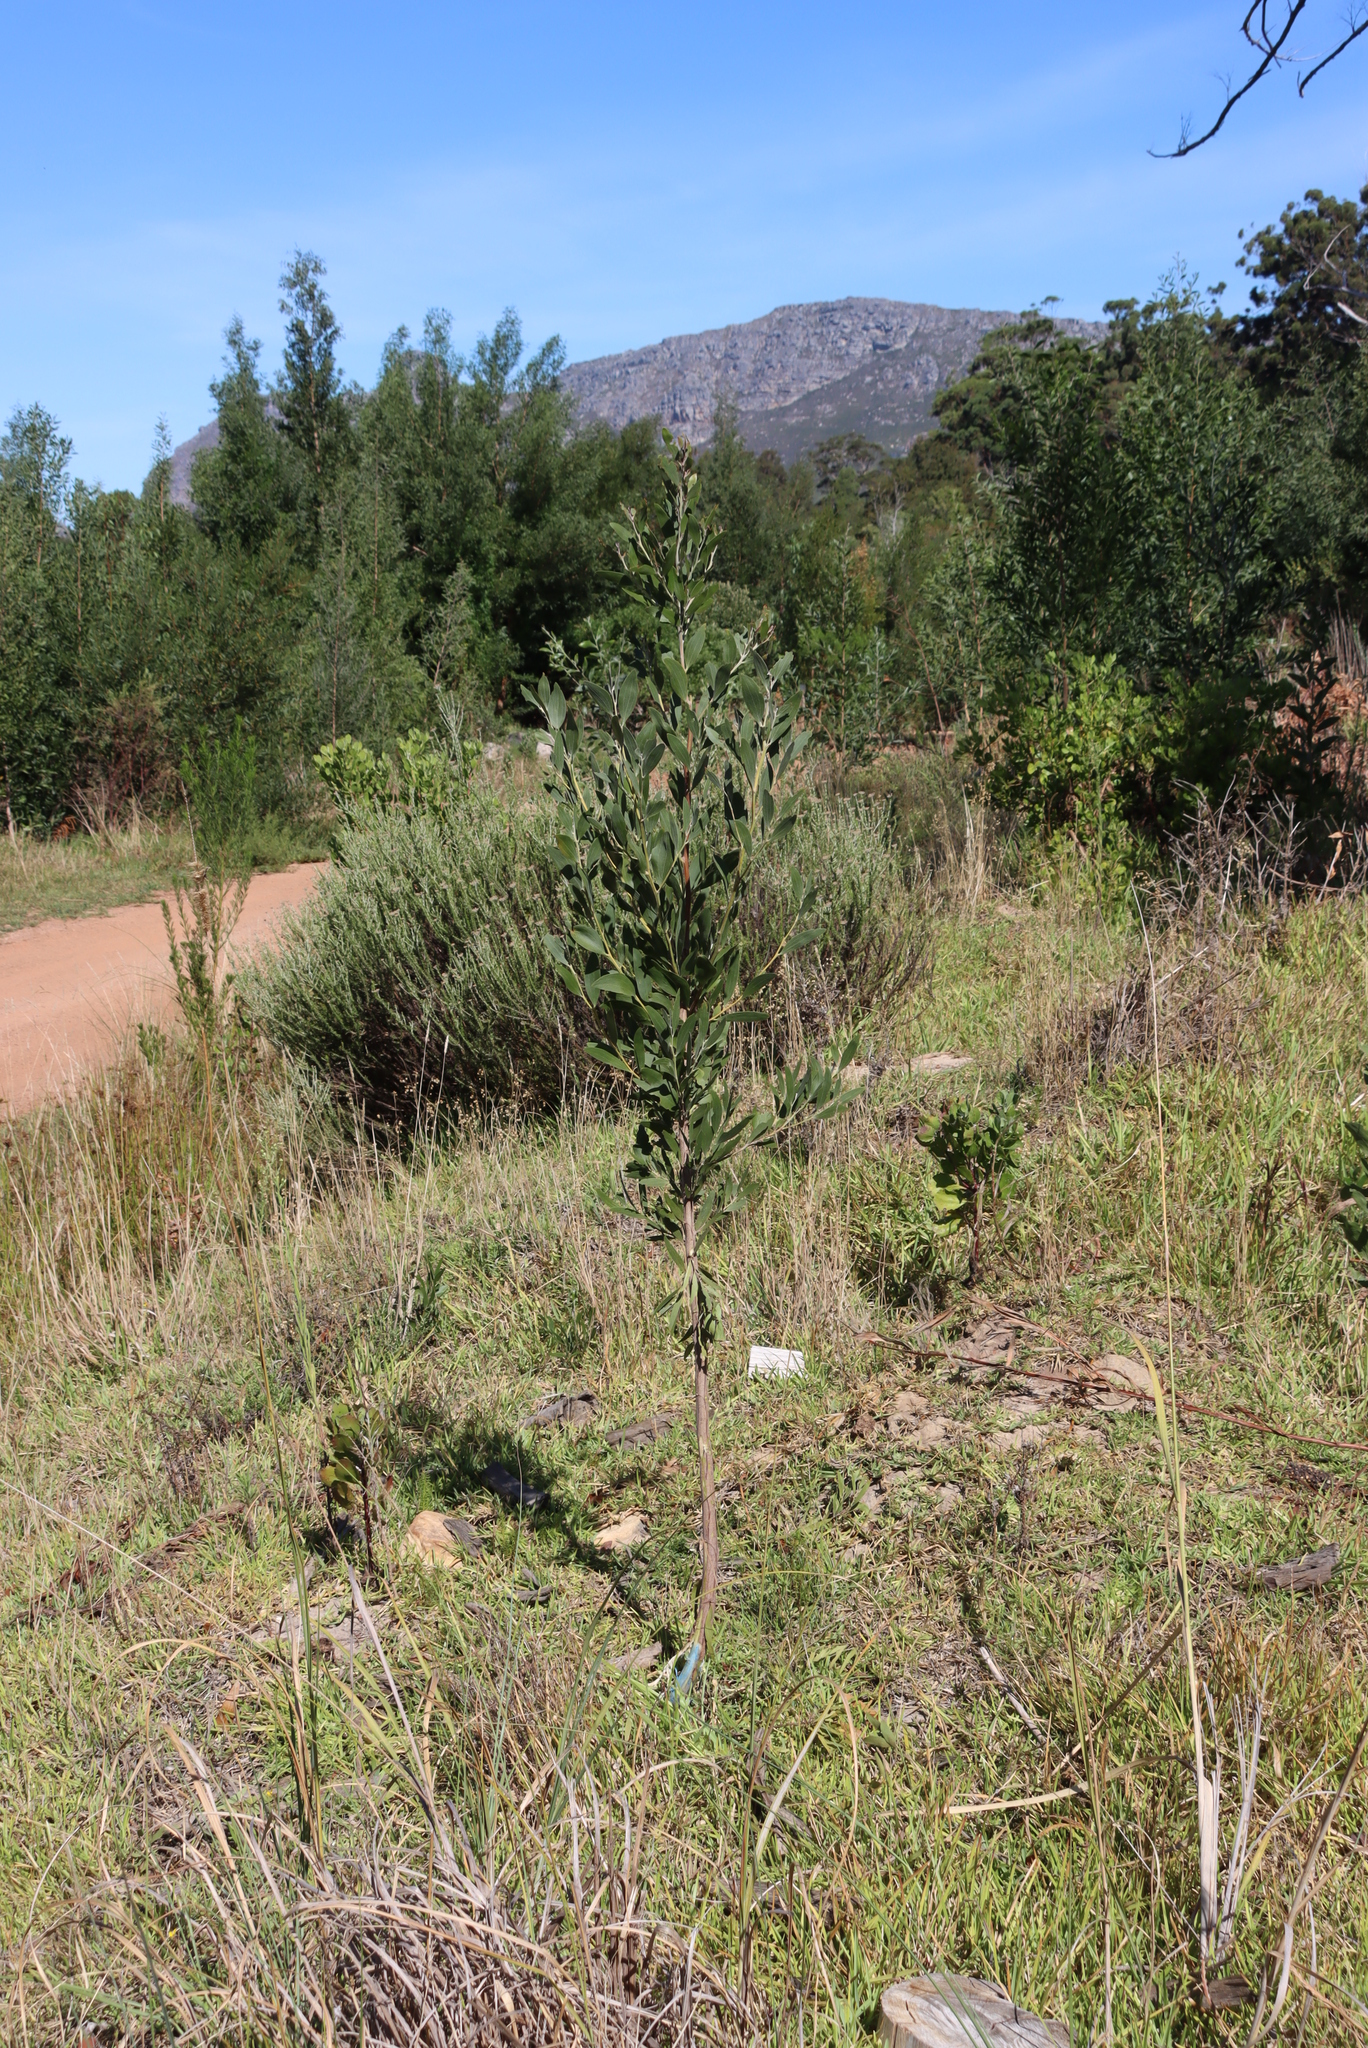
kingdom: Plantae
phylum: Tracheophyta
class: Magnoliopsida
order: Fabales
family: Fabaceae
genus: Acacia
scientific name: Acacia melanoxylon
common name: Blackwood
